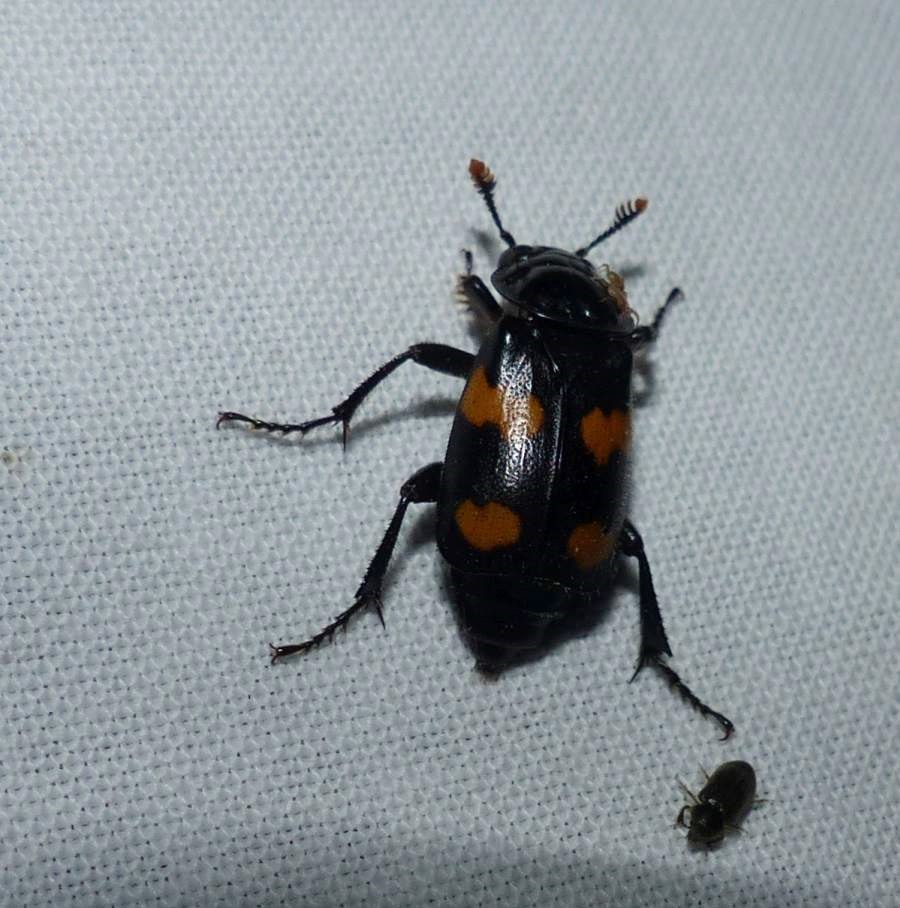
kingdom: Animalia
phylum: Arthropoda
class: Insecta
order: Coleoptera
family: Staphylinidae
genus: Nicrophorus
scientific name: Nicrophorus orbicollis
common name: Roundneck sexton beetle
